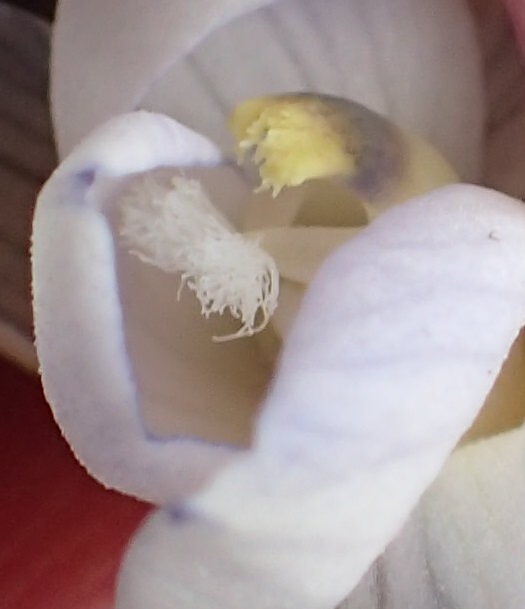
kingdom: Plantae
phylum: Tracheophyta
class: Liliopsida
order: Asparagales
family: Orchidaceae
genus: Thelymitra
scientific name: Thelymitra aristata
